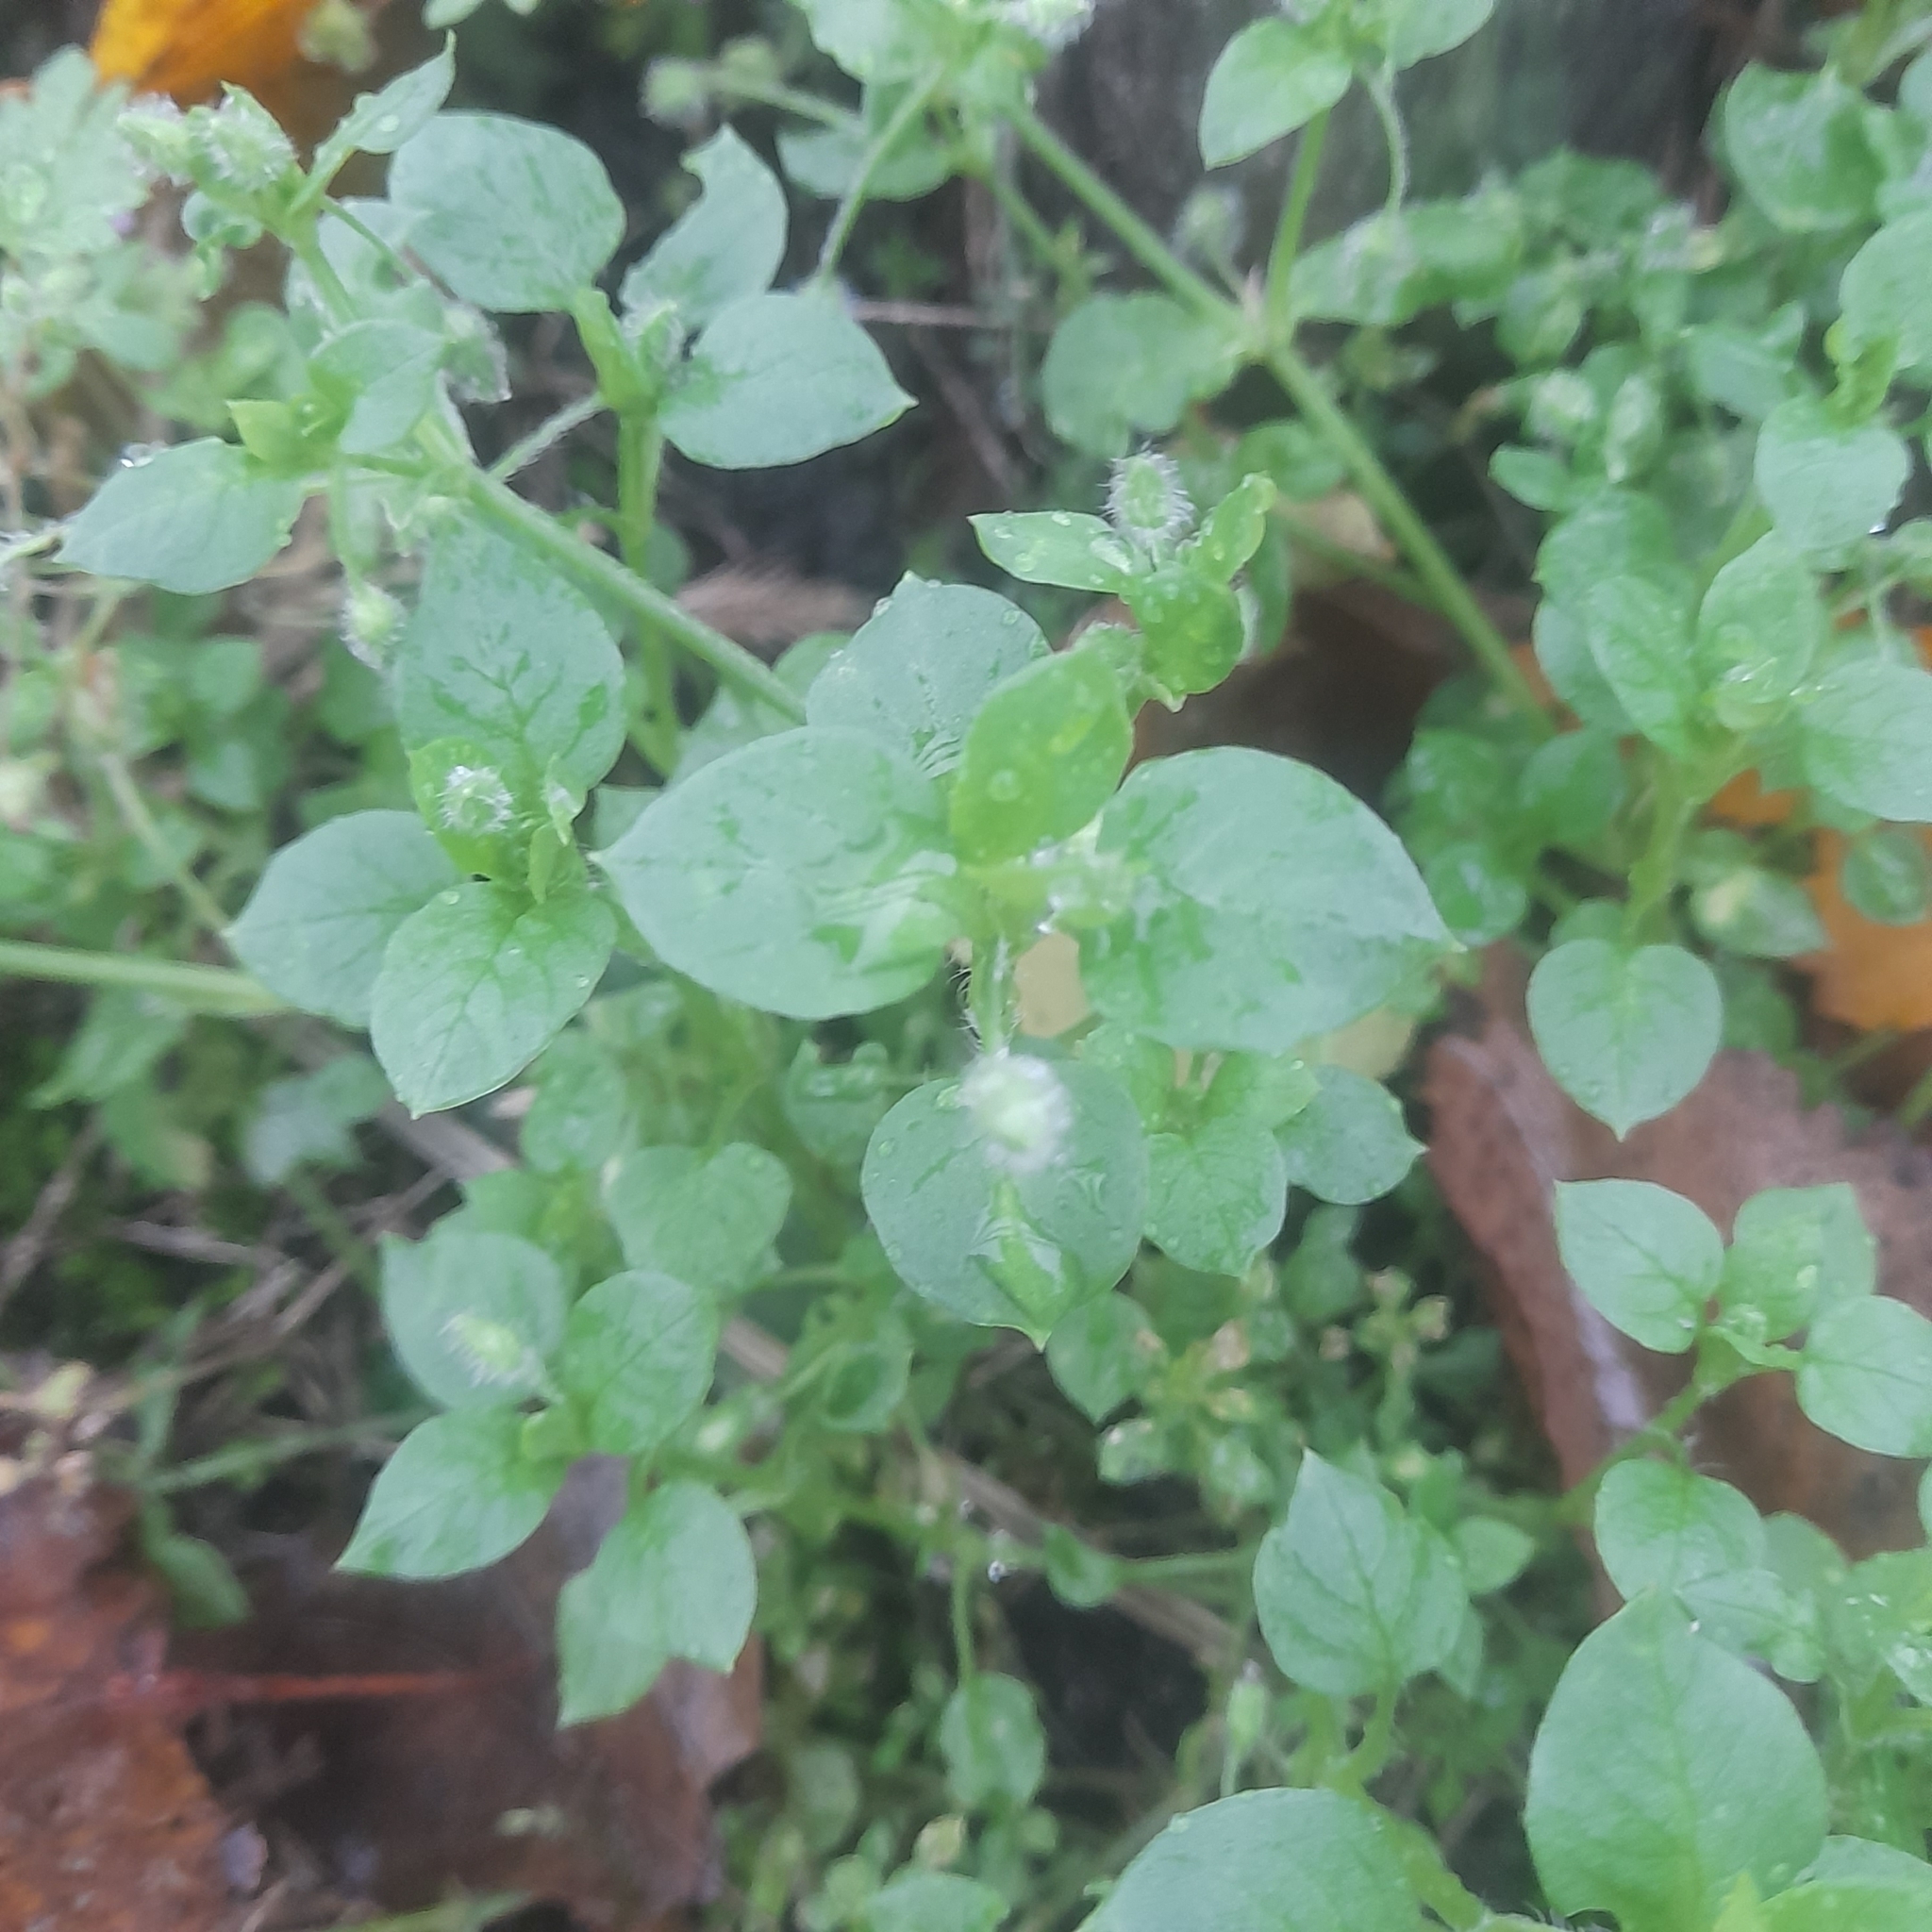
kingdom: Plantae
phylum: Tracheophyta
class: Magnoliopsida
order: Caryophyllales
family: Caryophyllaceae
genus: Stellaria
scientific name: Stellaria media
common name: Common chickweed
